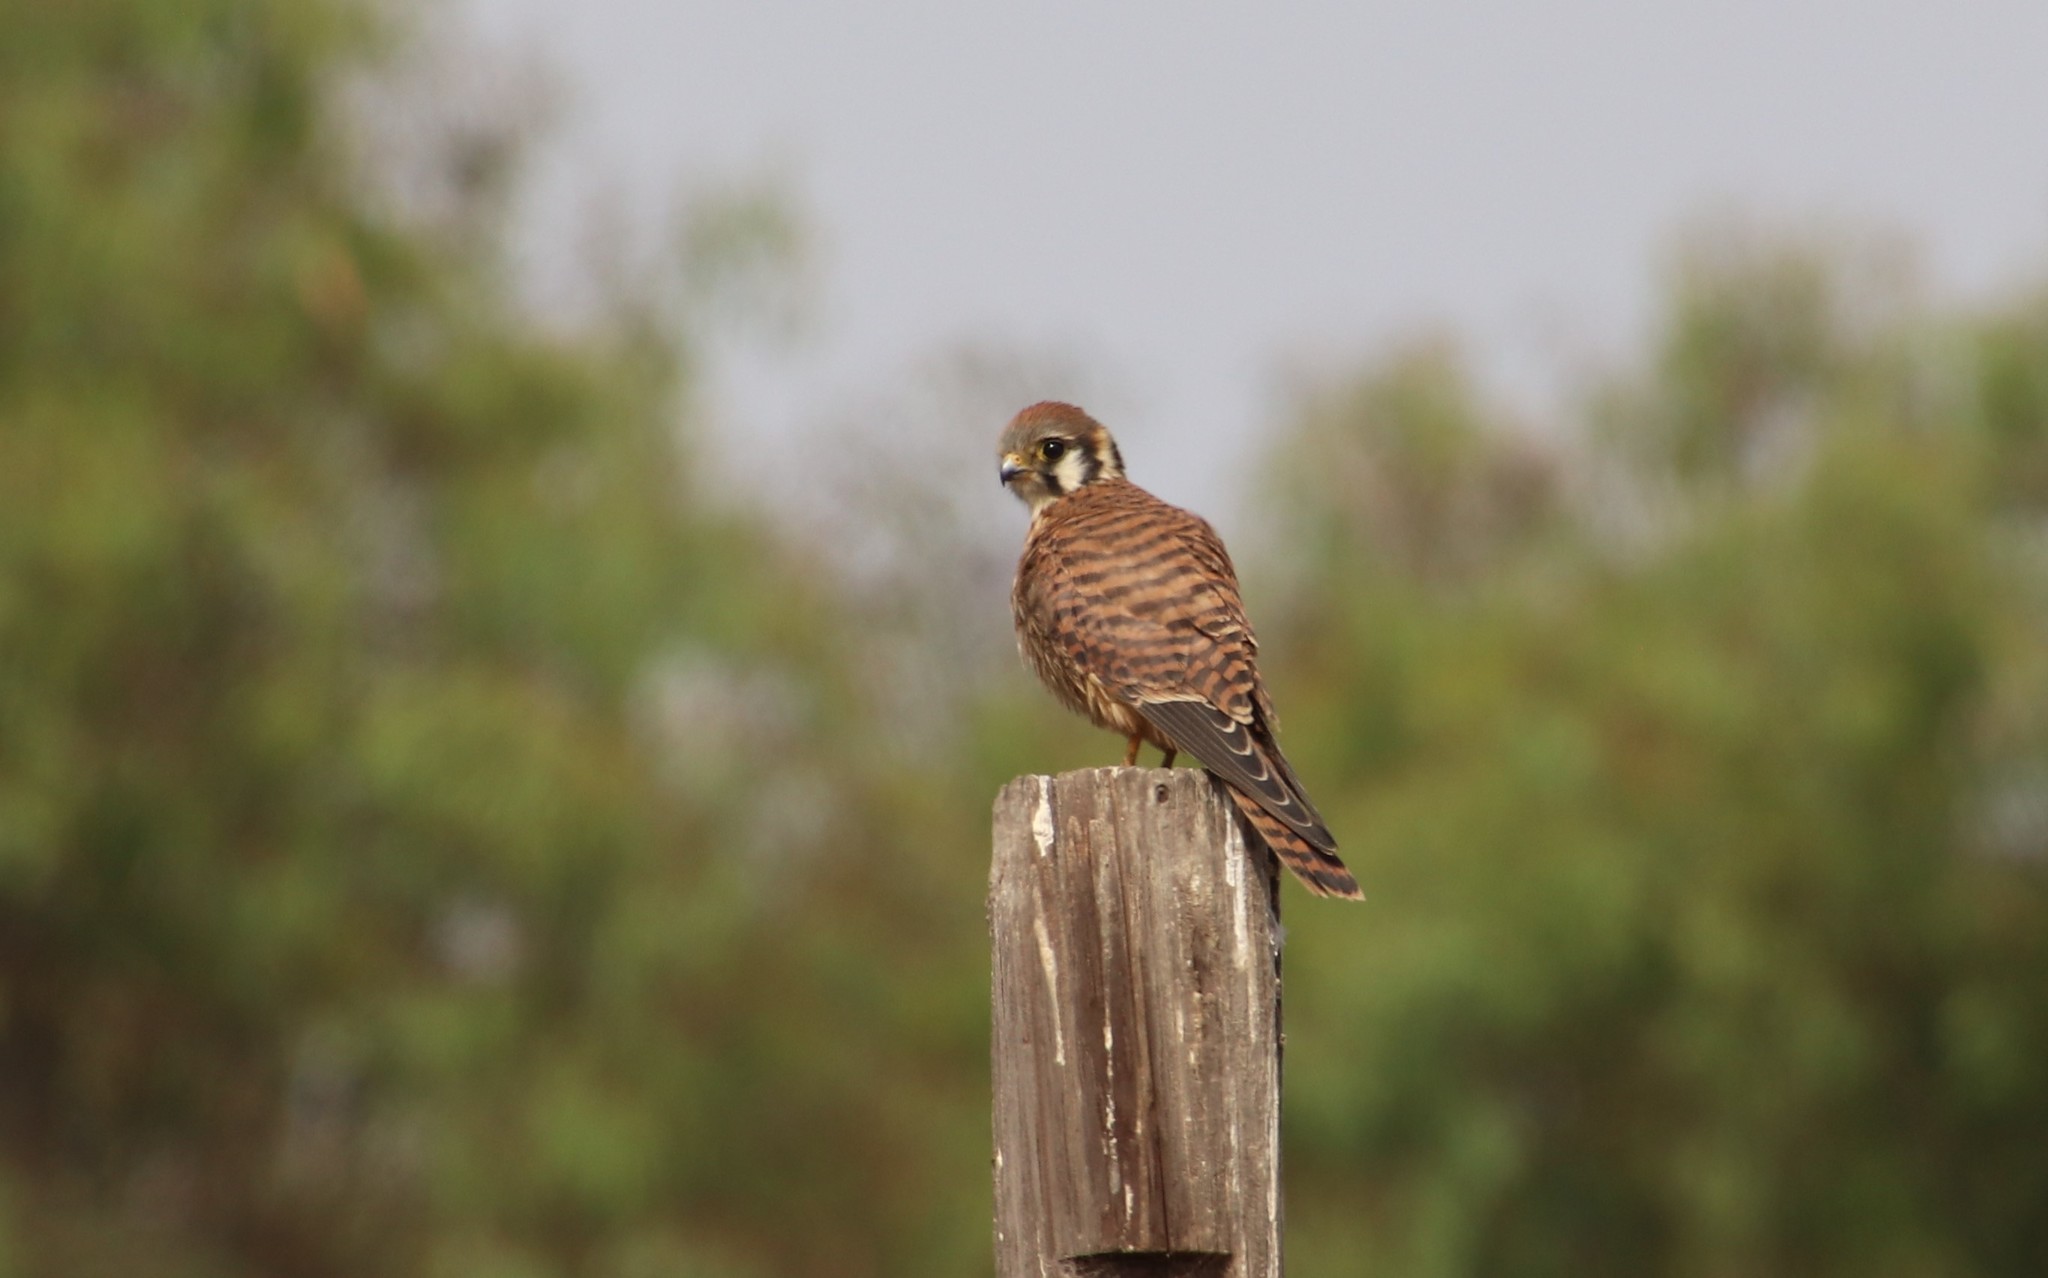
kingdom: Animalia
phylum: Chordata
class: Aves
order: Falconiformes
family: Falconidae
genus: Falco
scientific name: Falco sparverius
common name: American kestrel
